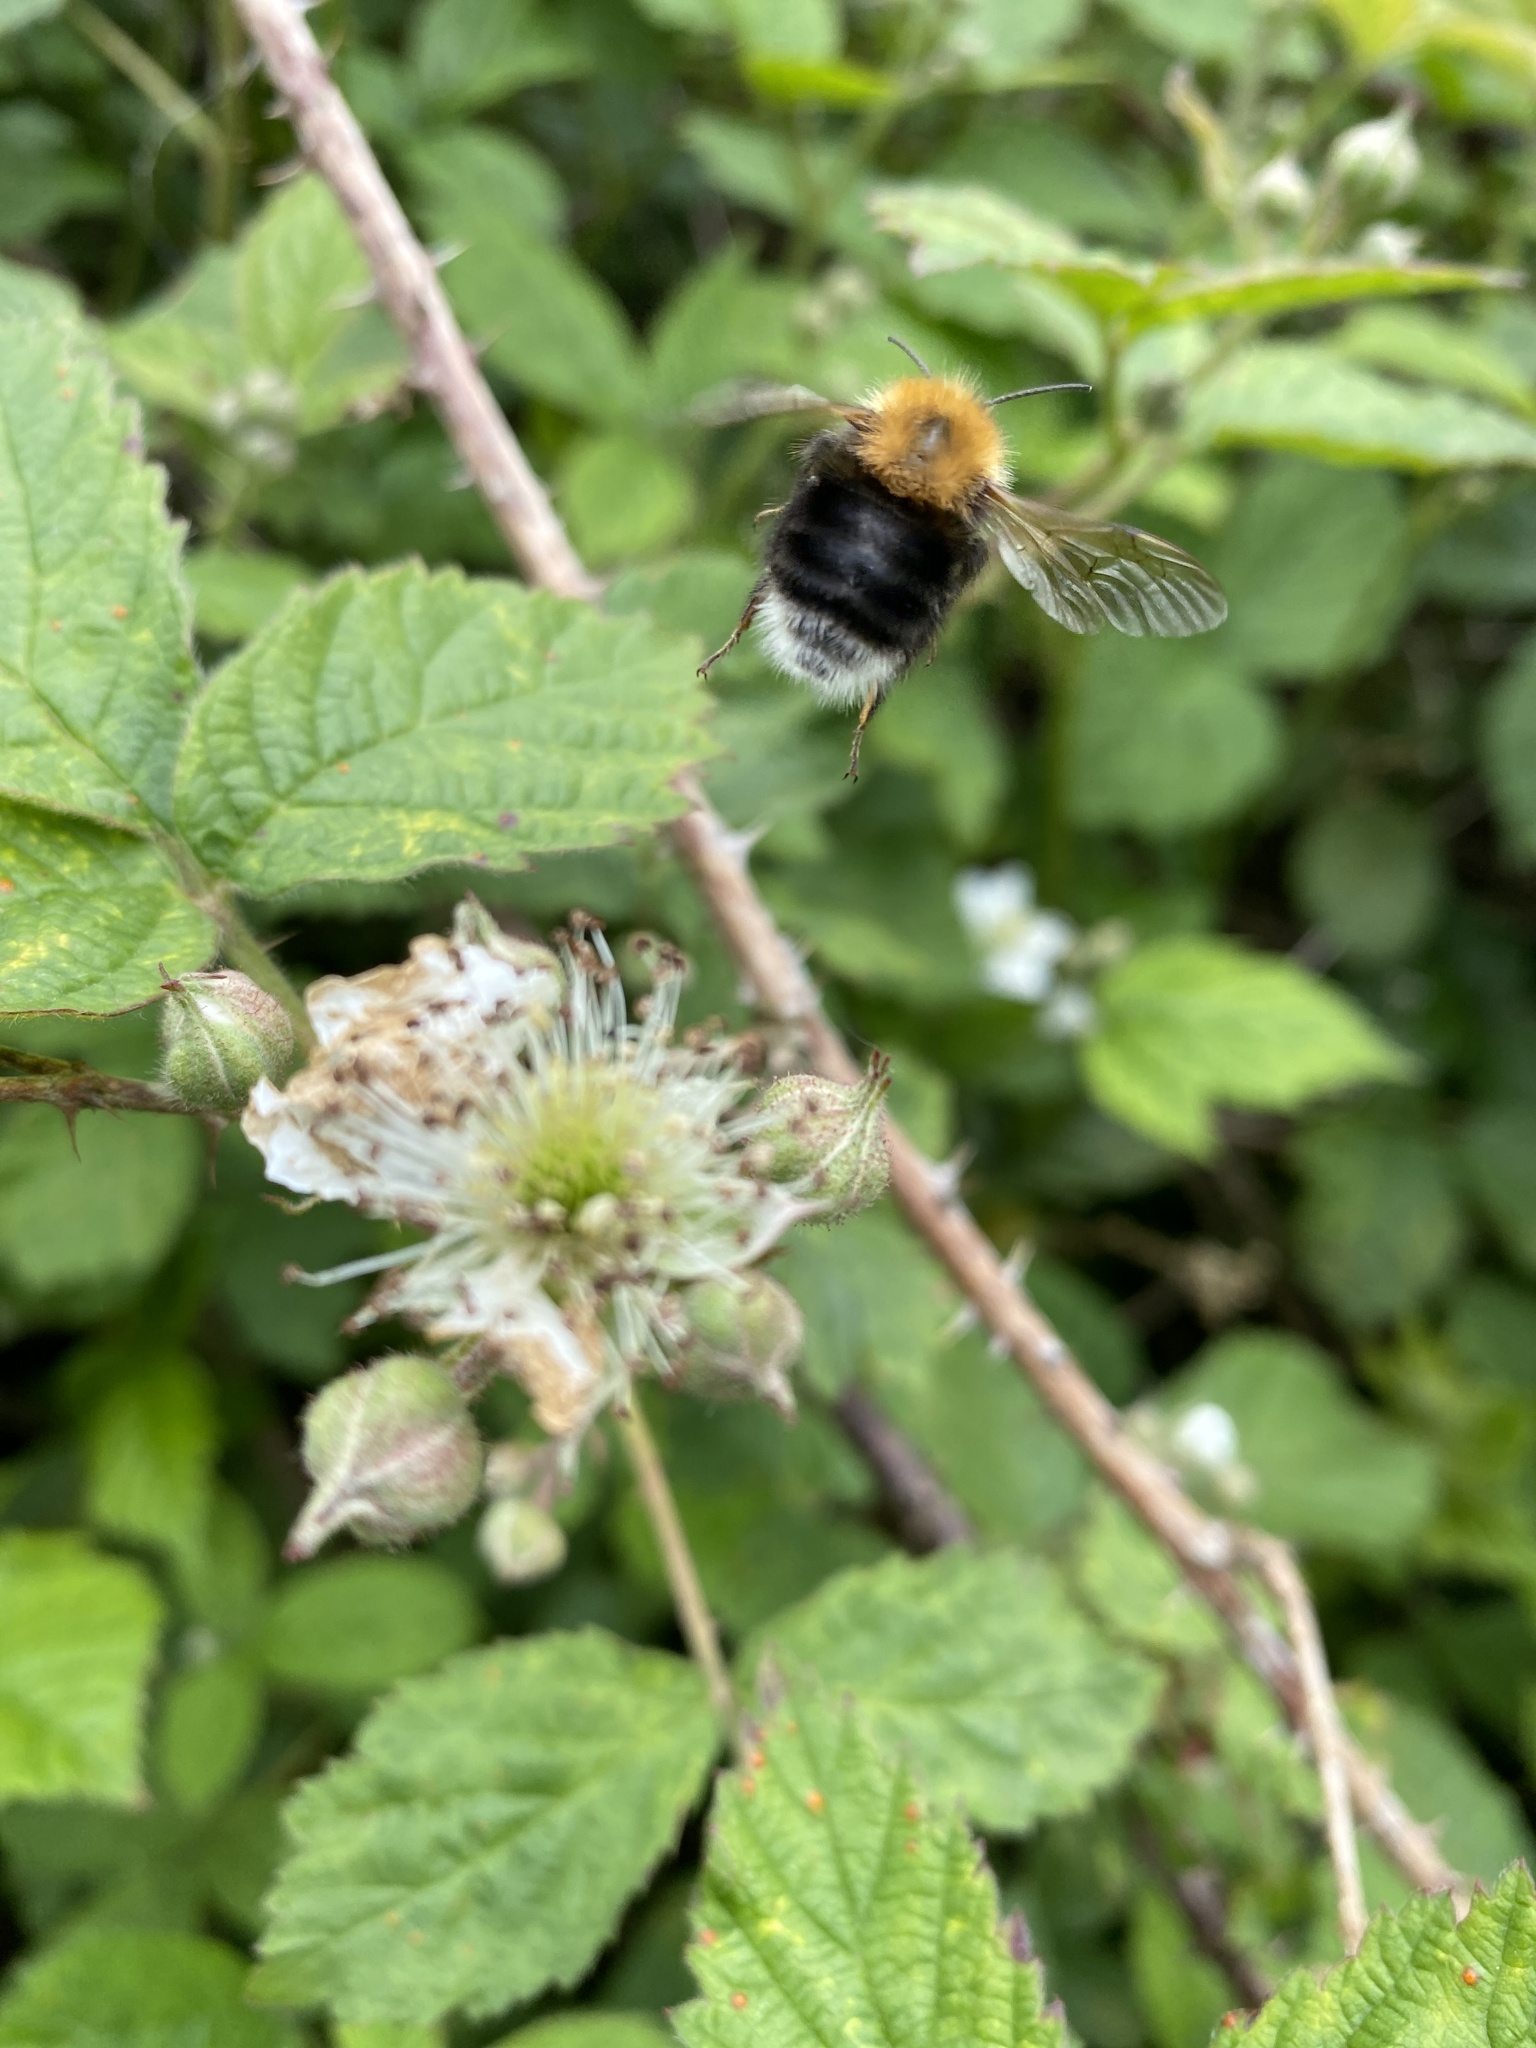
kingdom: Animalia
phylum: Arthropoda
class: Insecta
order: Hymenoptera
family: Apidae
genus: Bombus
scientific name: Bombus hypnorum
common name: New garden bumblebee
